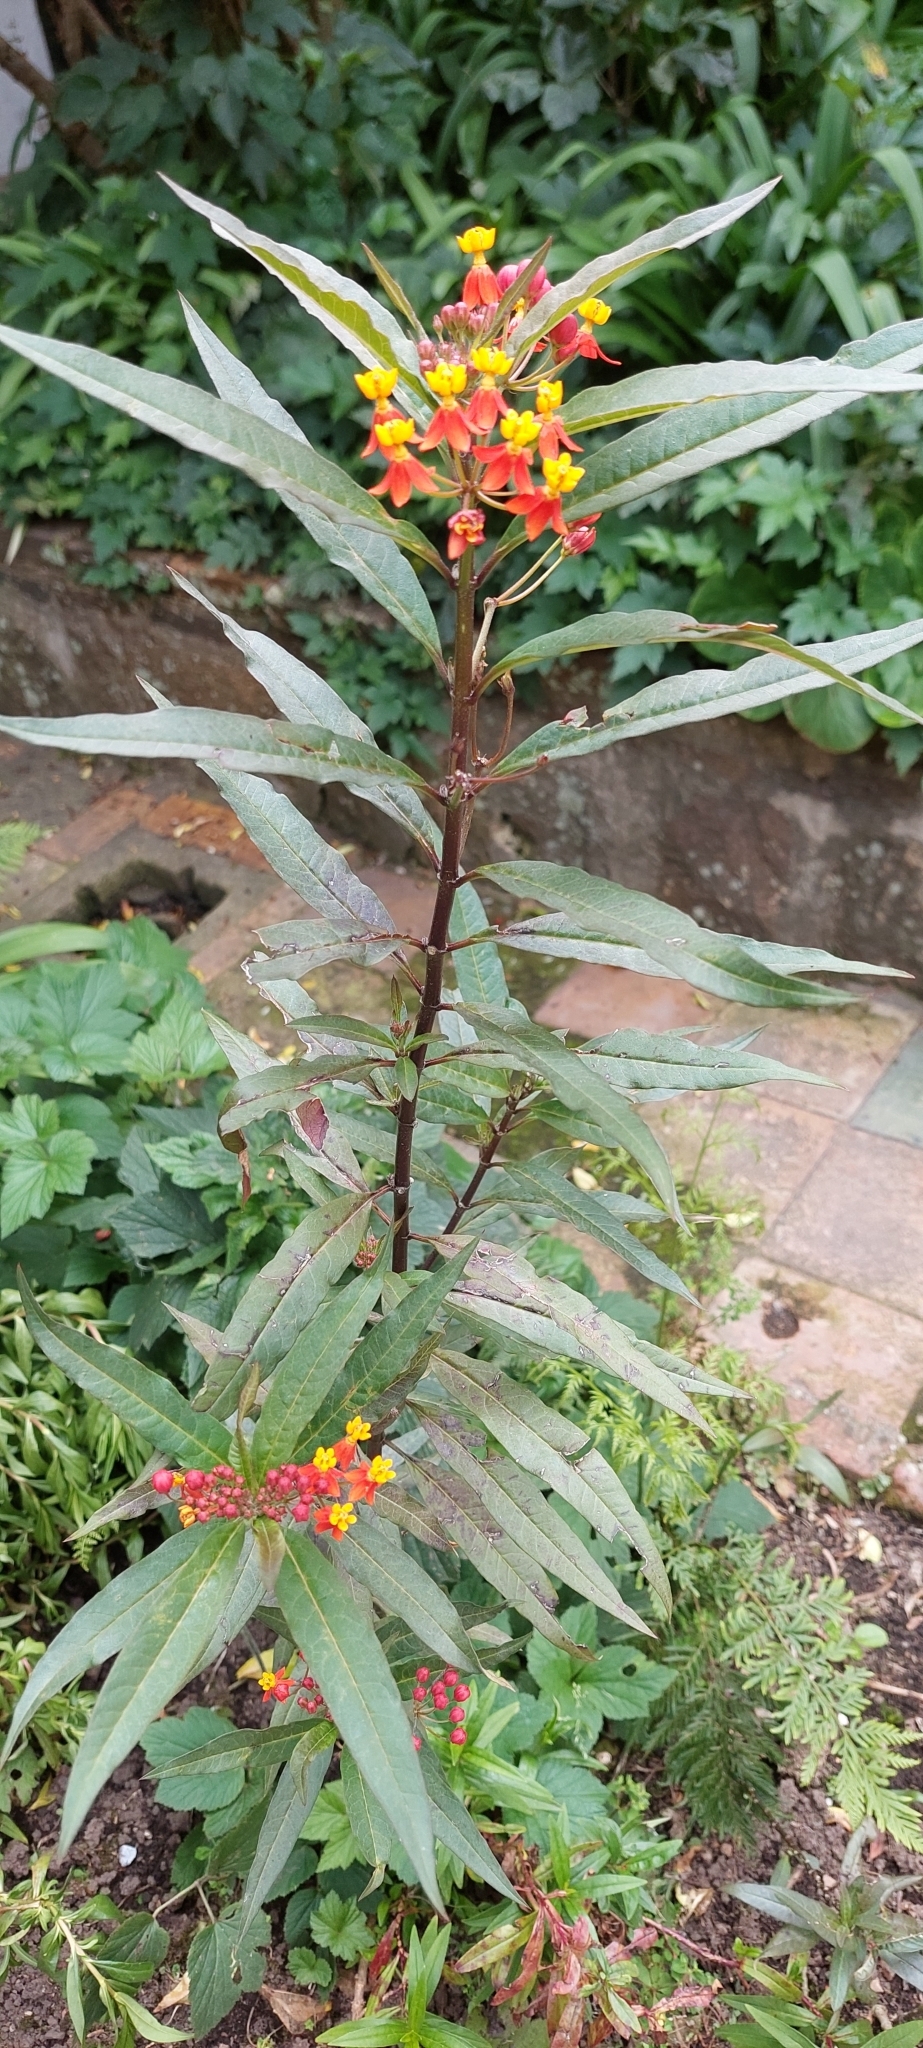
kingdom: Plantae
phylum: Tracheophyta
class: Magnoliopsida
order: Gentianales
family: Apocynaceae
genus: Asclepias
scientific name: Asclepias curassavica
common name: Bloodflower
